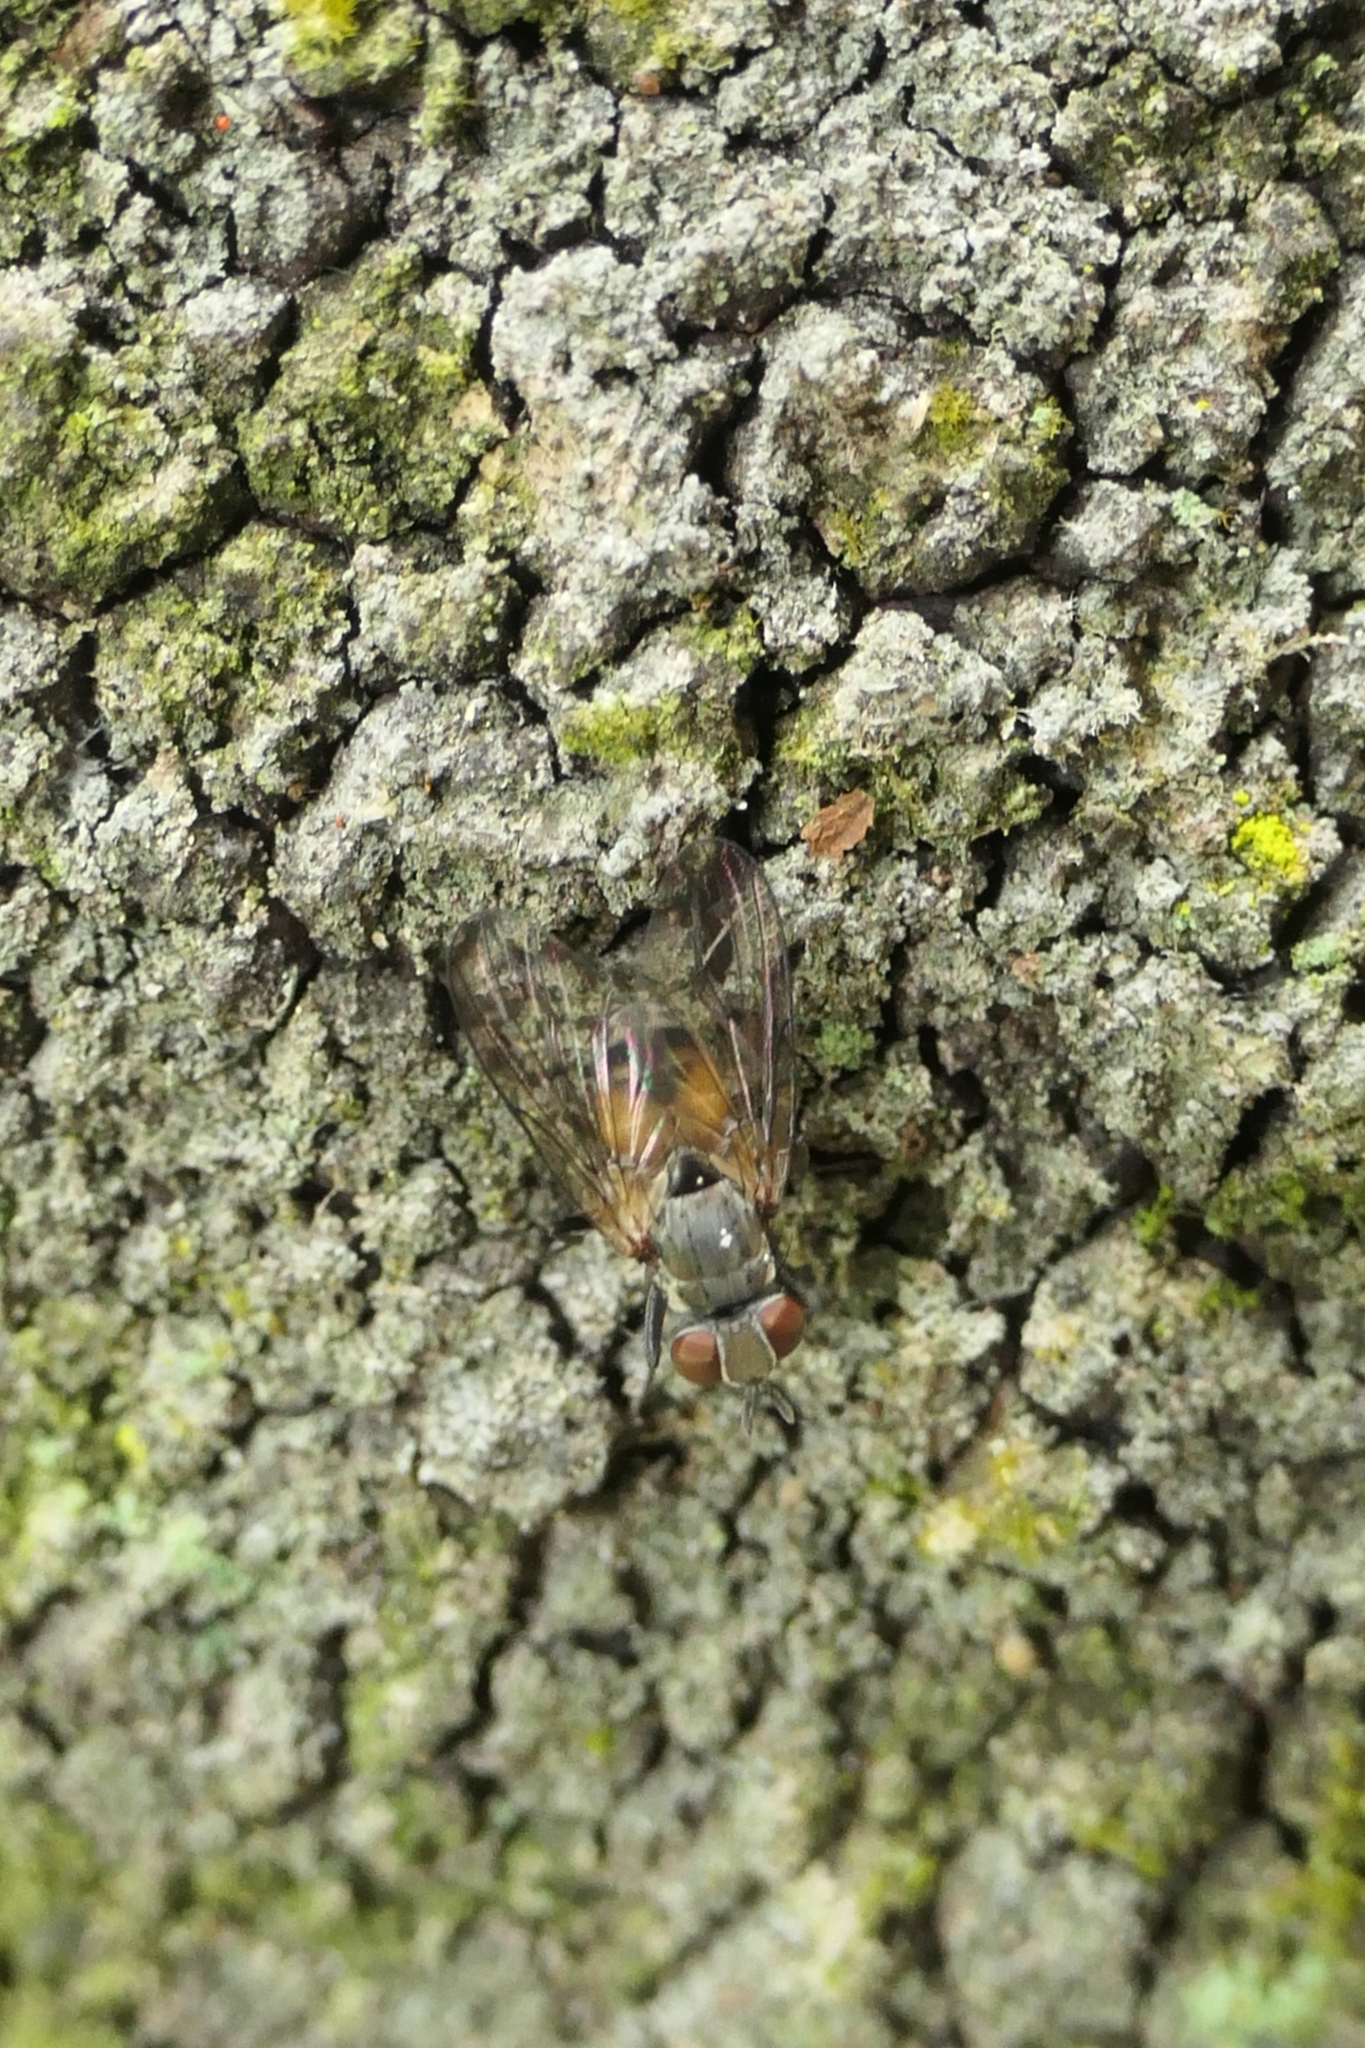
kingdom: Animalia
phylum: Arthropoda
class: Insecta
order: Diptera
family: Muscidae
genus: Spilogona
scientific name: Spilogona flaviventris
